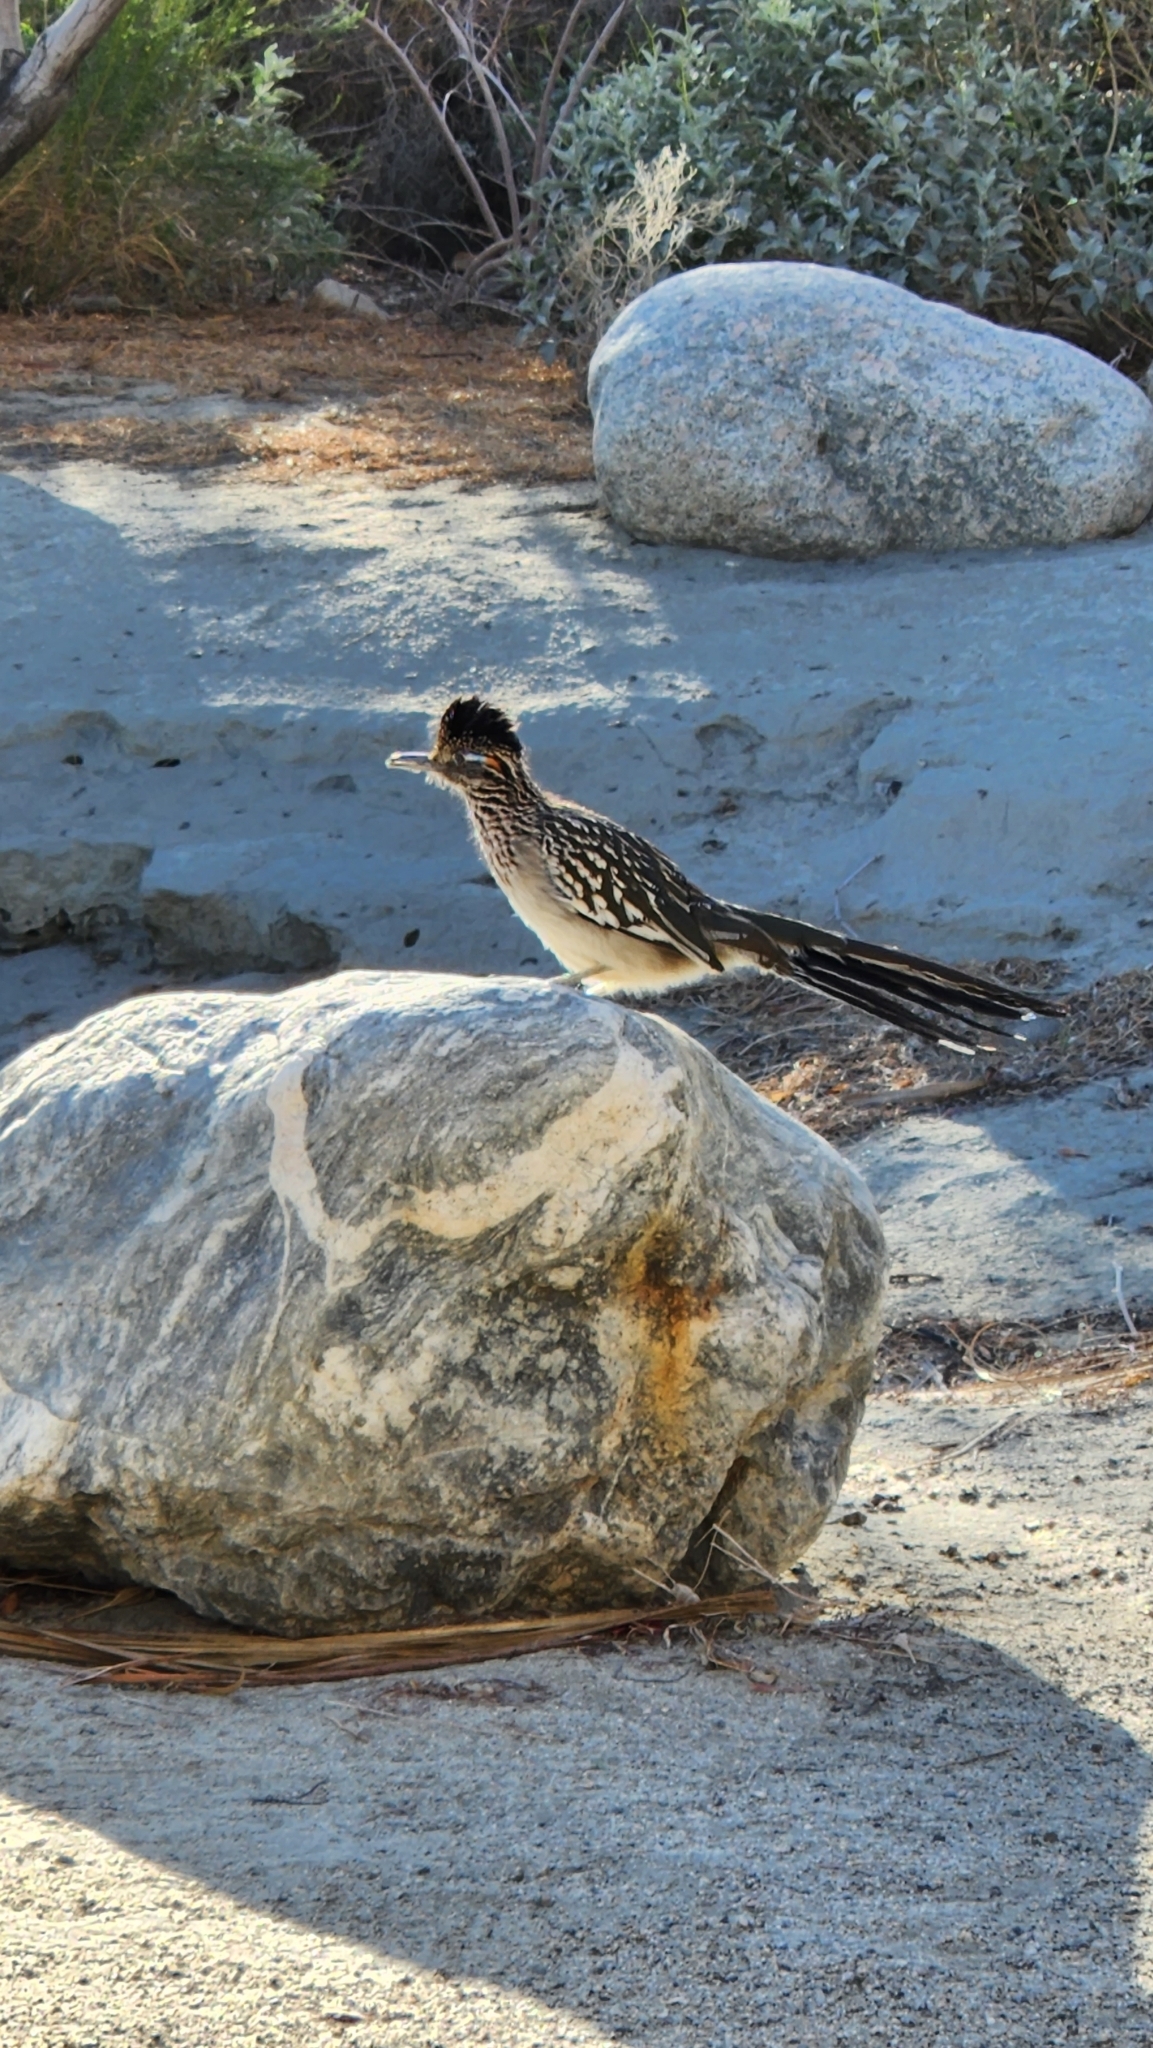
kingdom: Animalia
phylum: Chordata
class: Aves
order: Cuculiformes
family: Cuculidae
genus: Geococcyx
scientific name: Geococcyx californianus
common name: Greater roadrunner
